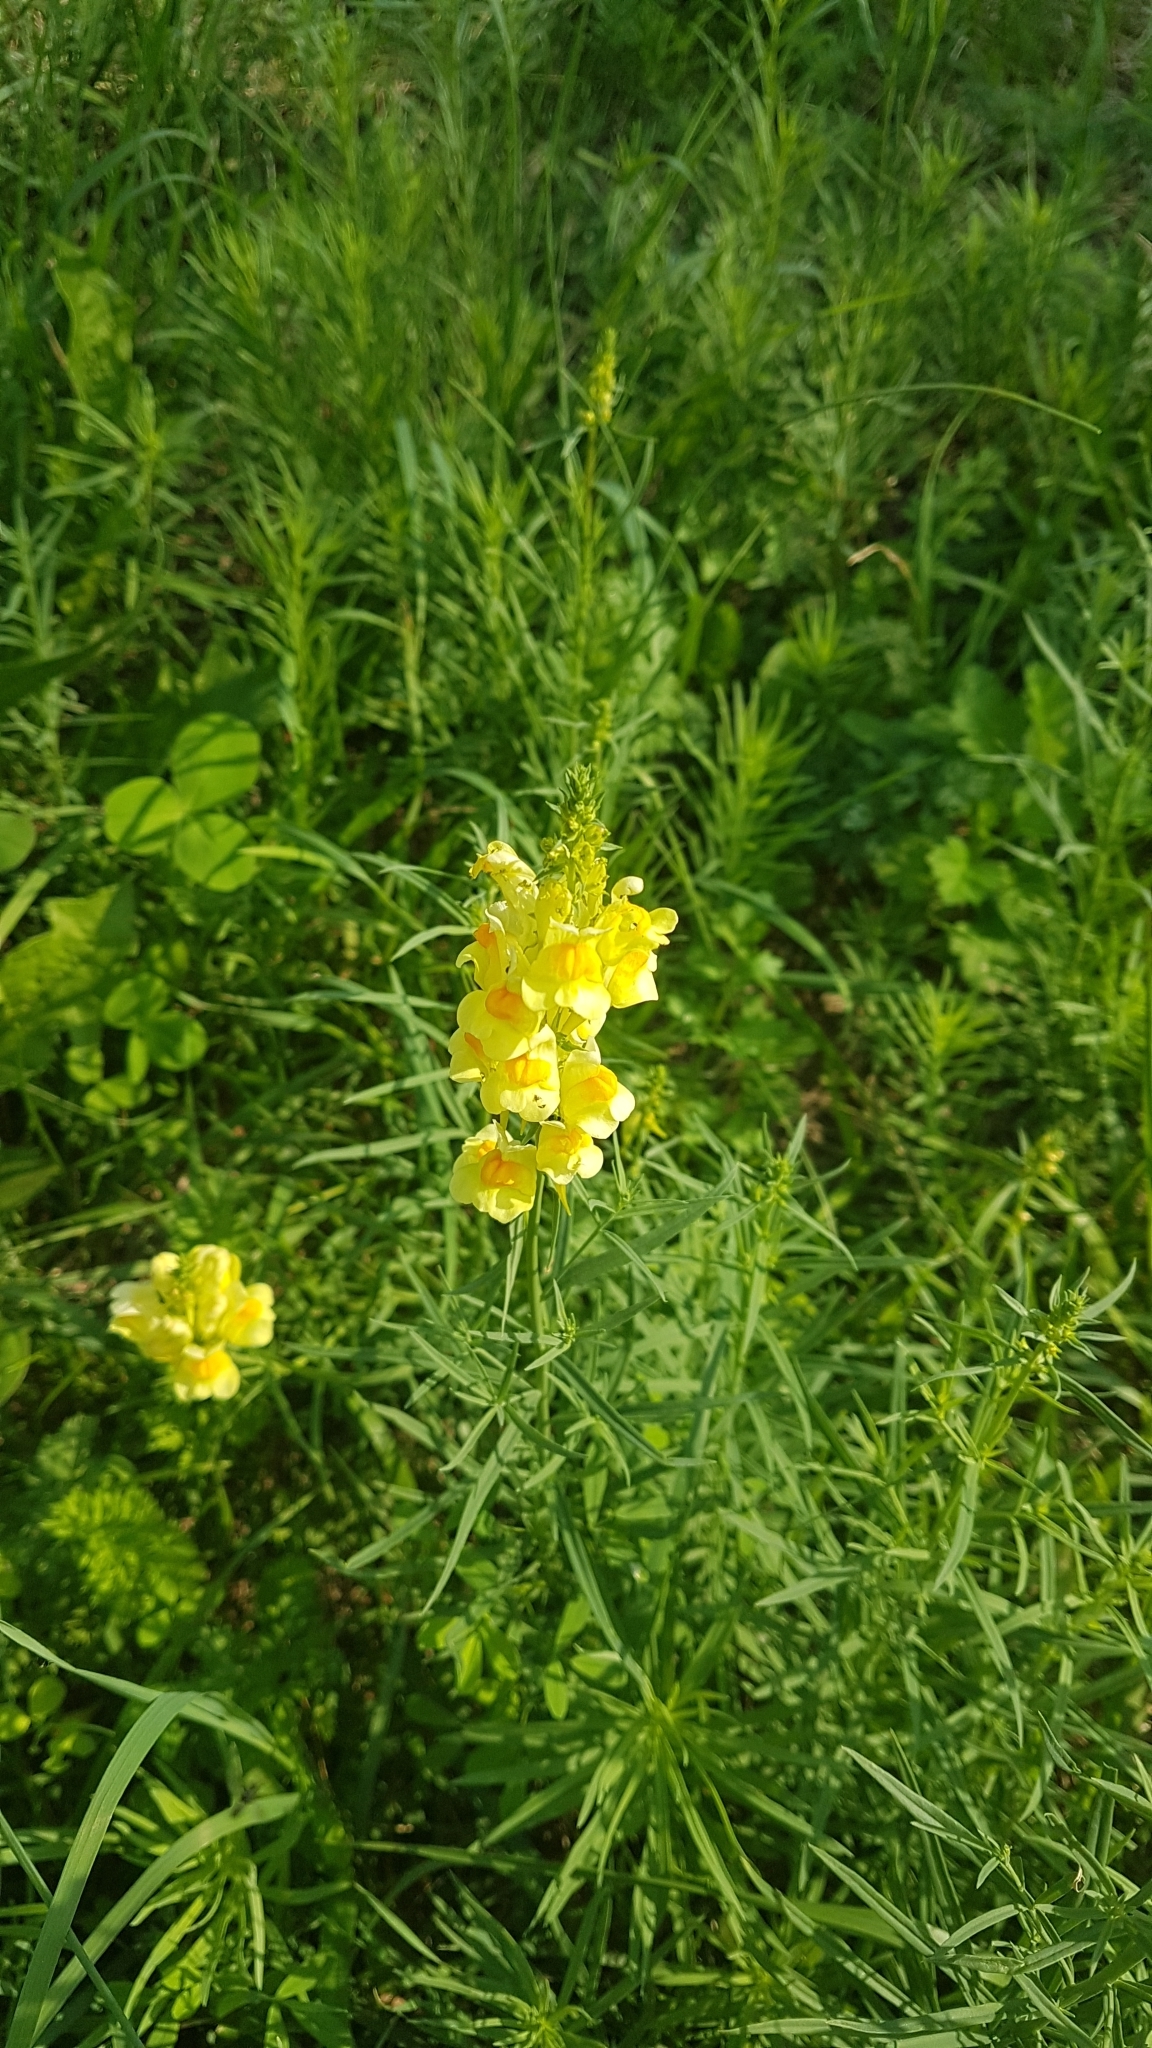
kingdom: Plantae
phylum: Tracheophyta
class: Magnoliopsida
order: Lamiales
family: Plantaginaceae
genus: Linaria
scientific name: Linaria vulgaris
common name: Butter and eggs
